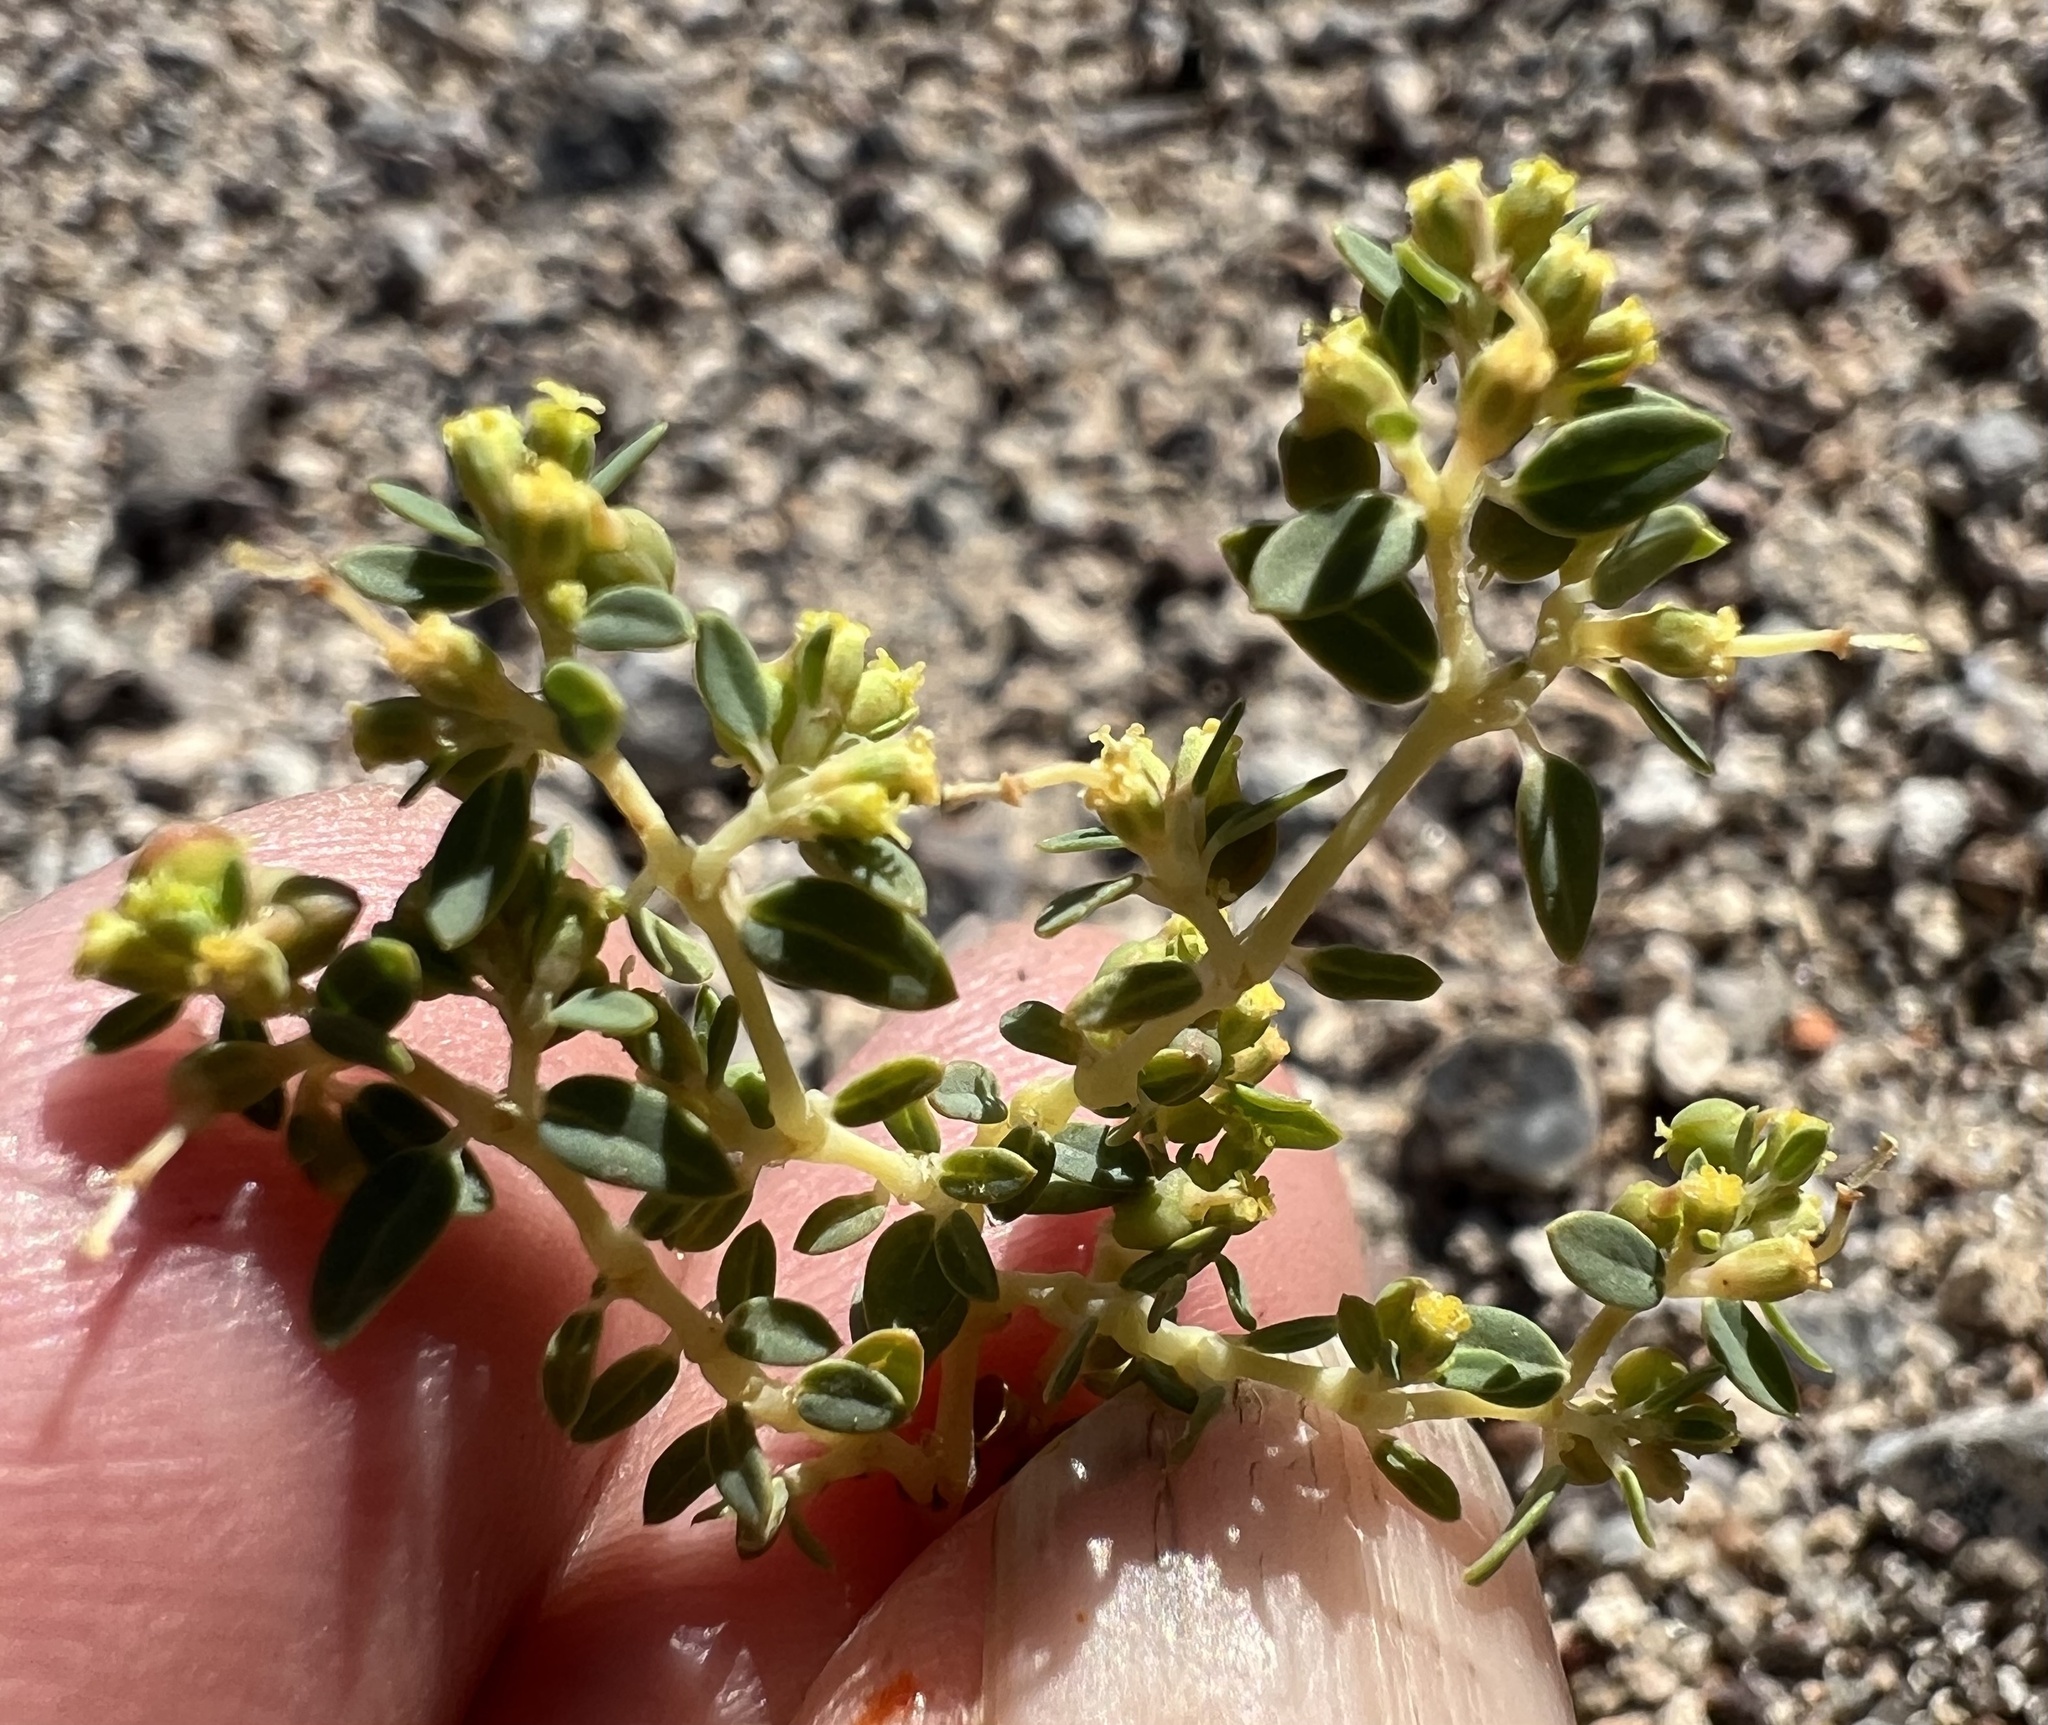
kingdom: Plantae
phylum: Tracheophyta
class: Magnoliopsida
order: Malpighiales
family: Euphorbiaceae
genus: Euphorbia
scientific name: Euphorbia ocellata
